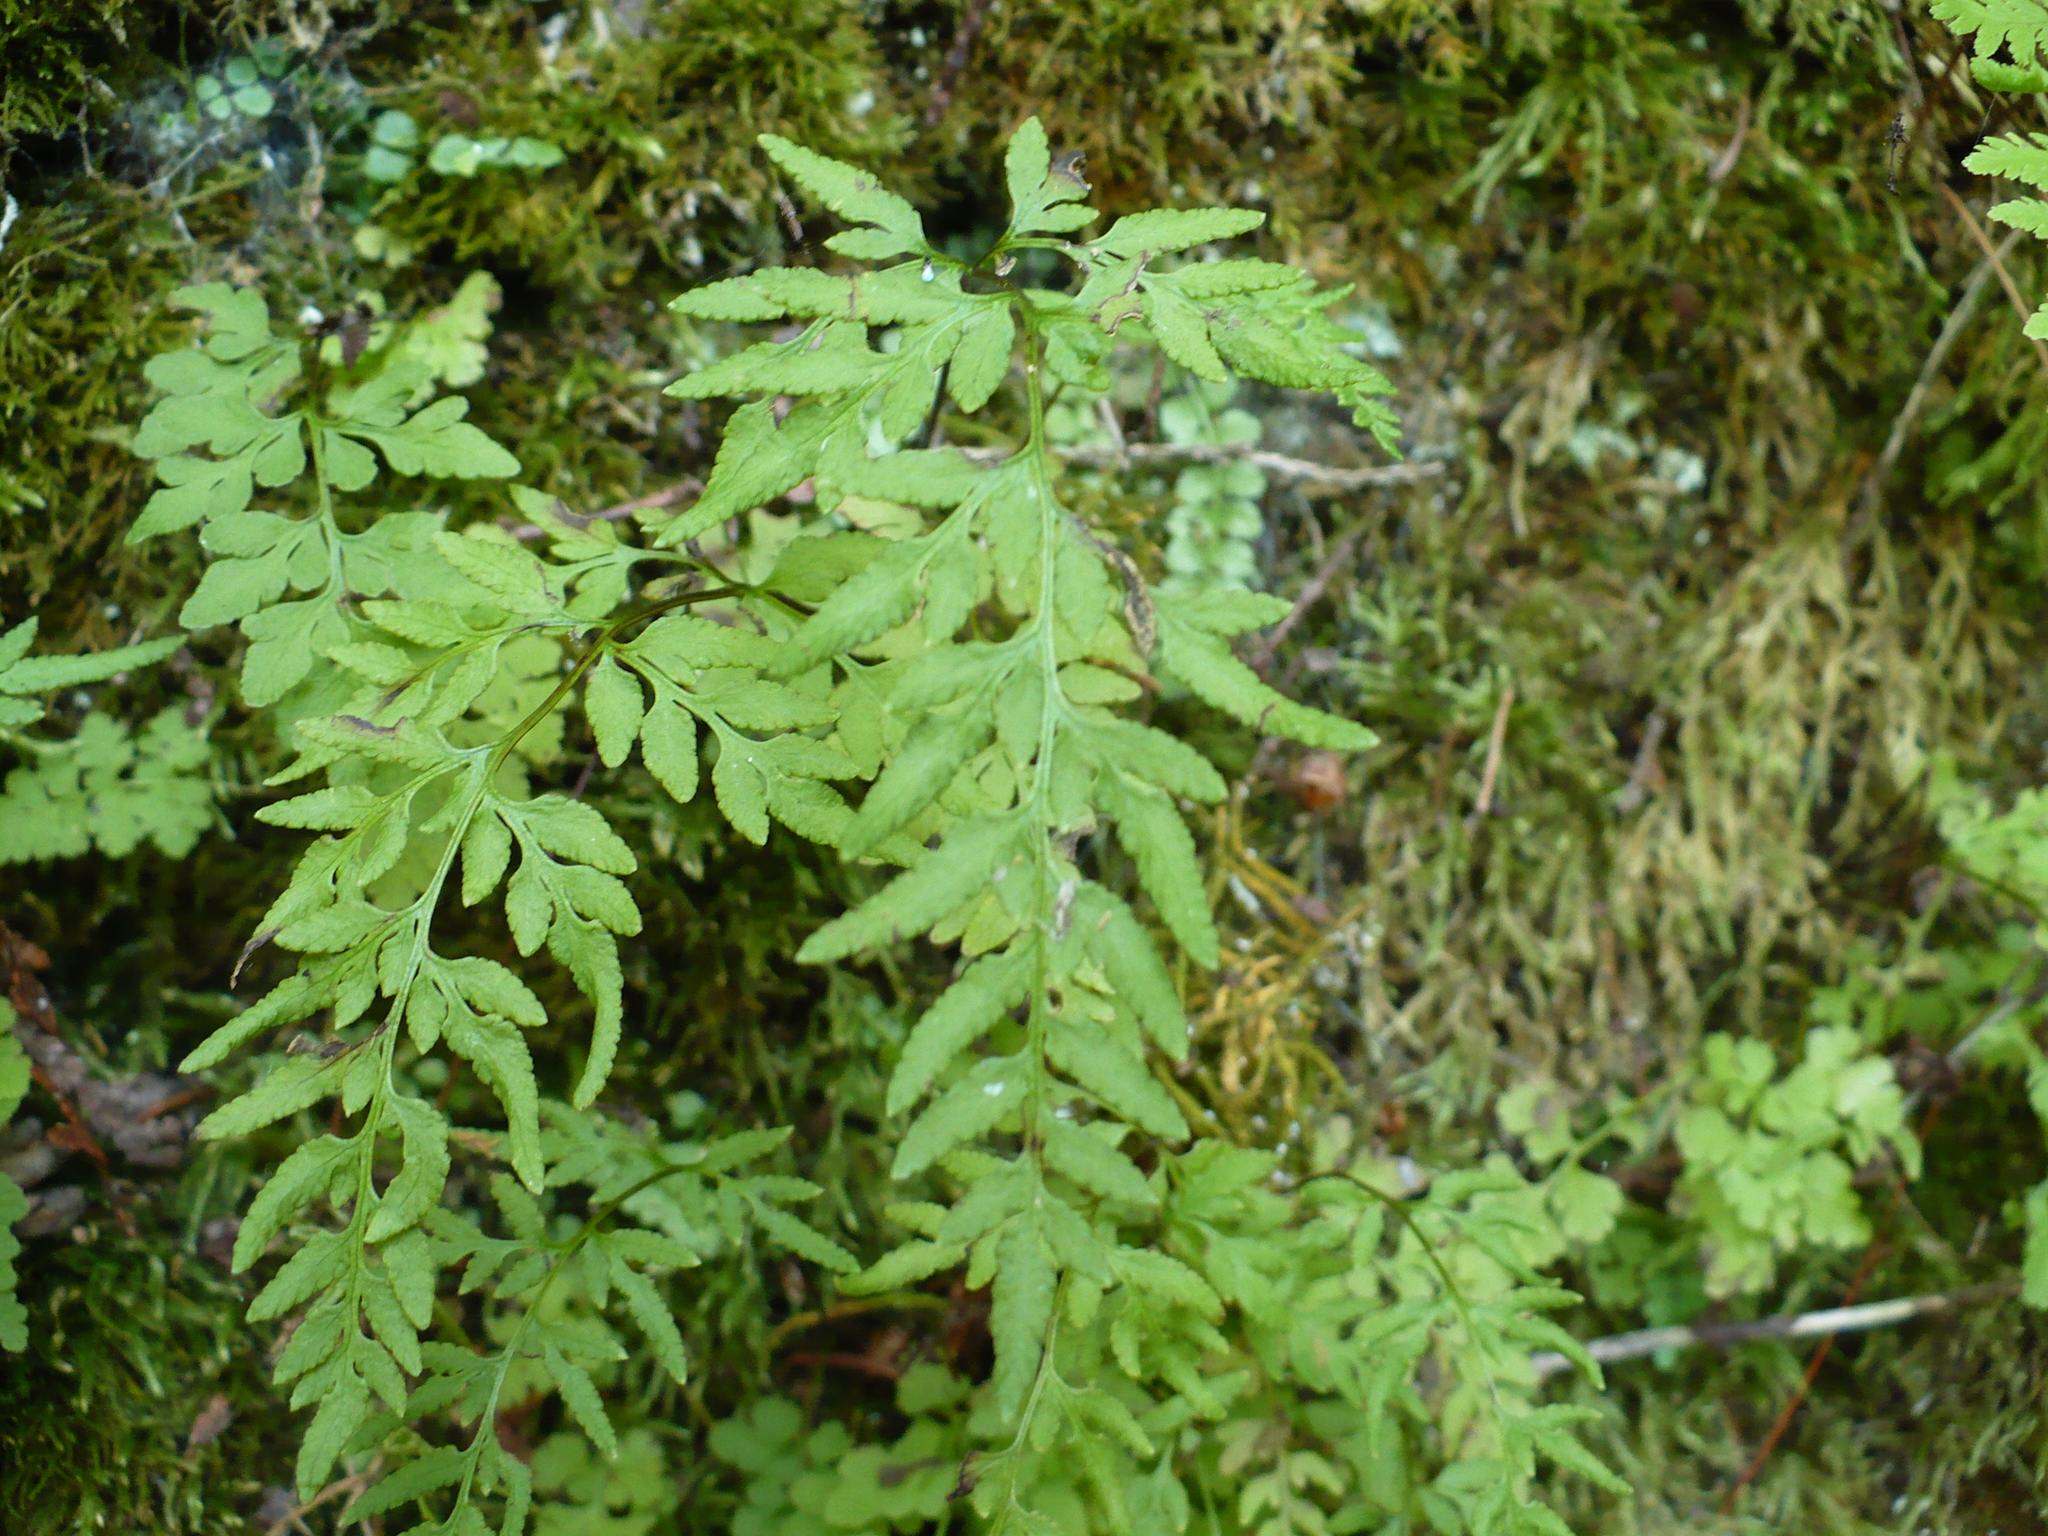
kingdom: Plantae
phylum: Tracheophyta
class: Polypodiopsida
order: Polypodiales
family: Pteridaceae
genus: Cryptogramma
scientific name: Cryptogramma stelleri
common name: Cliff-brake
